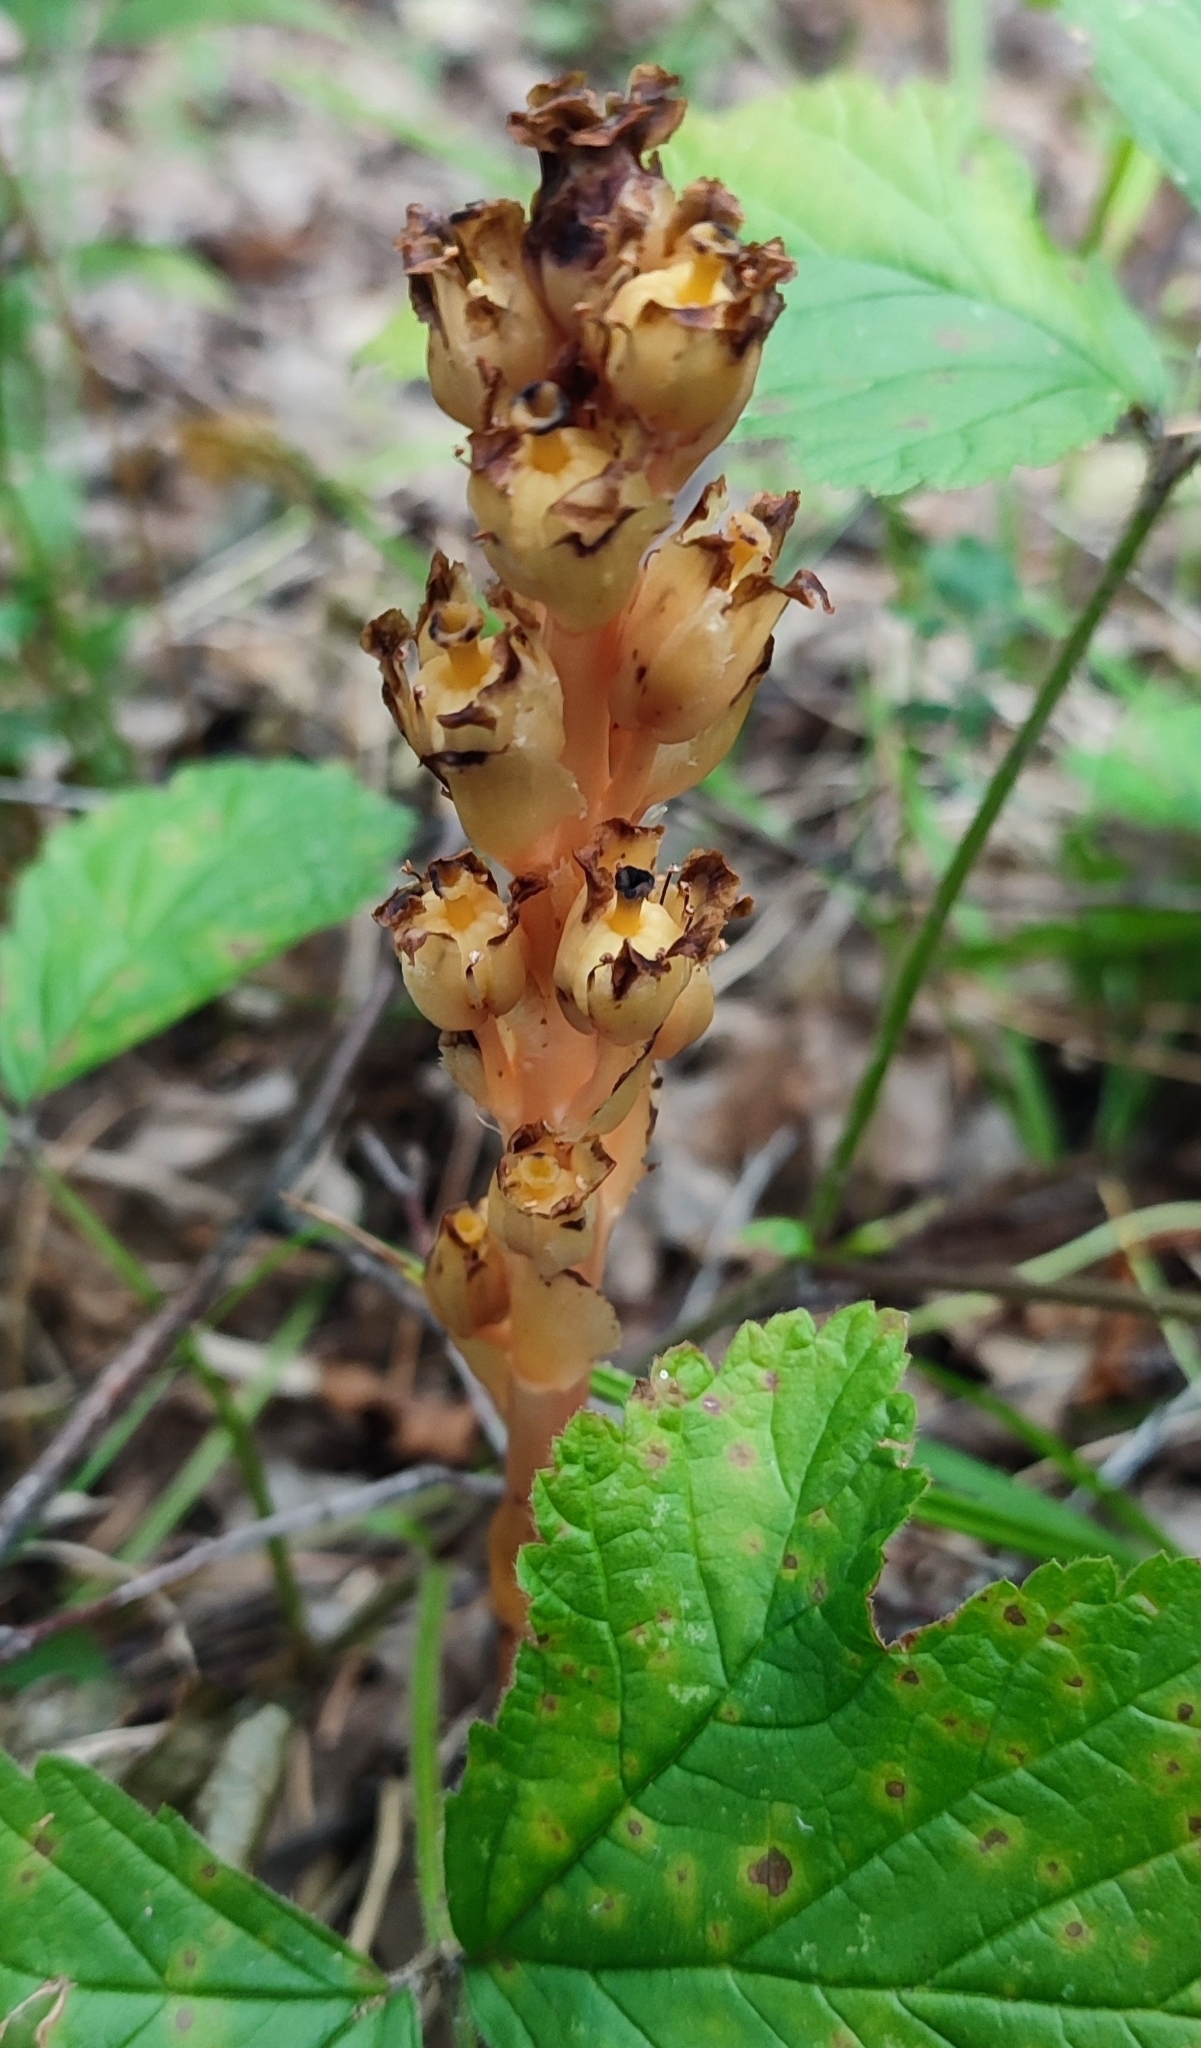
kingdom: Plantae
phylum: Tracheophyta
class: Magnoliopsida
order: Ericales
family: Ericaceae
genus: Hypopitys
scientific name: Hypopitys monotropa
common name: Yellow bird's-nest
